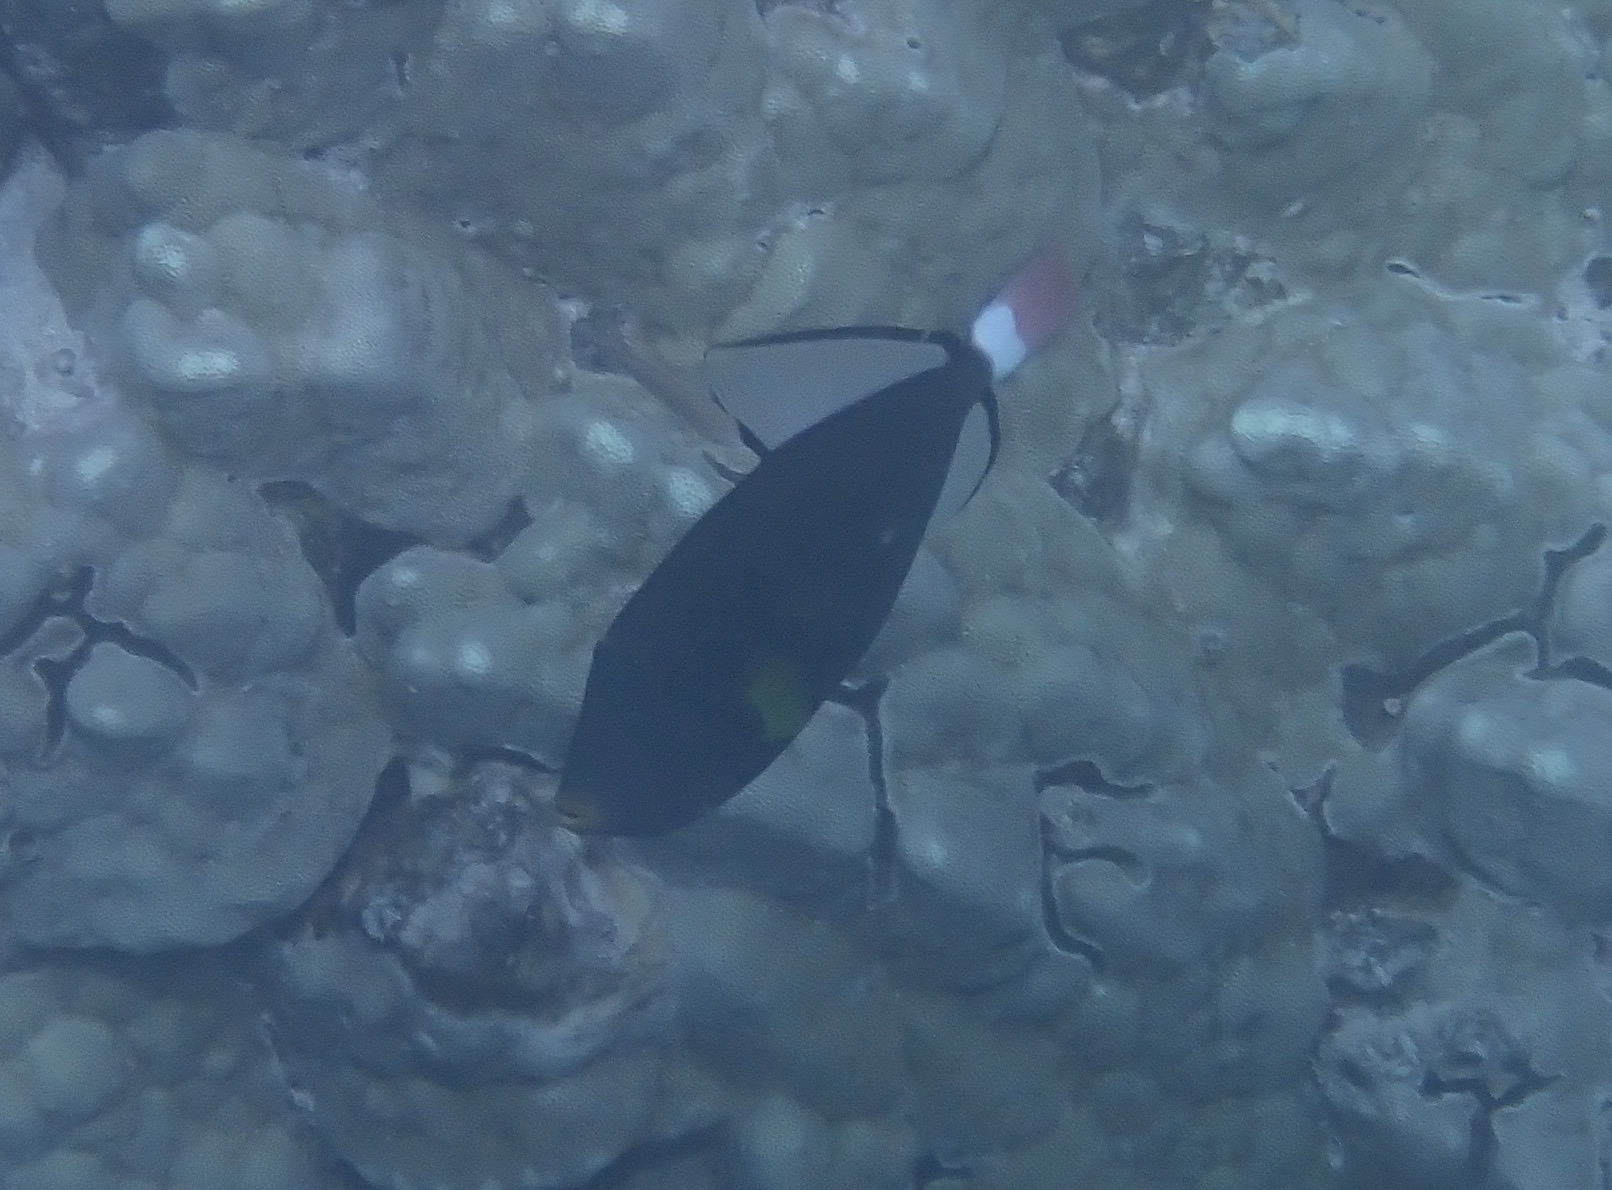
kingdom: Animalia
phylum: Chordata
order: Tetraodontiformes
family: Balistidae
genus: Melichthys
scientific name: Melichthys vidua
